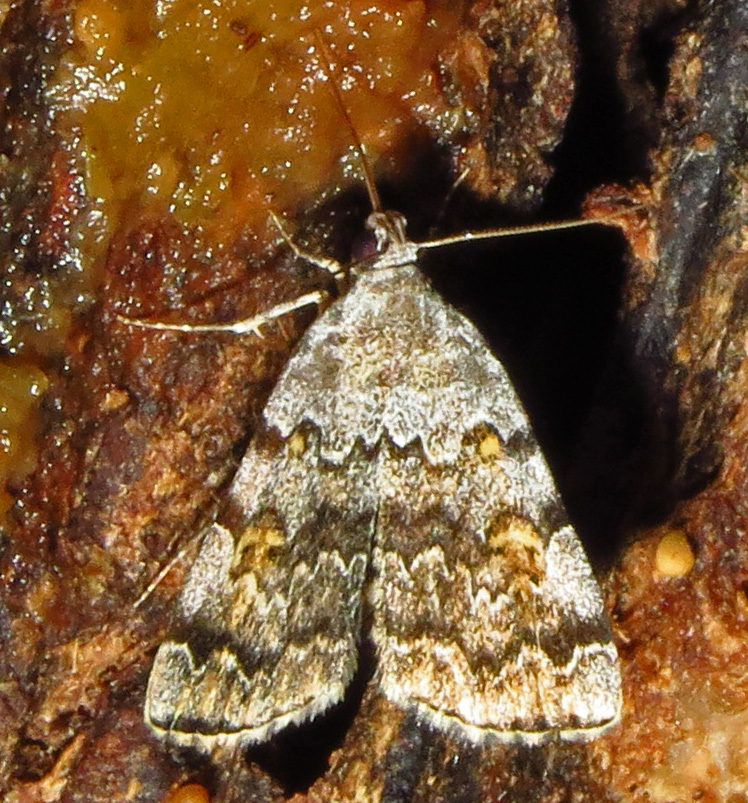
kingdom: Animalia
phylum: Arthropoda
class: Insecta
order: Lepidoptera
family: Erebidae
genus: Idia
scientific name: Idia americalis
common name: American idia moth
